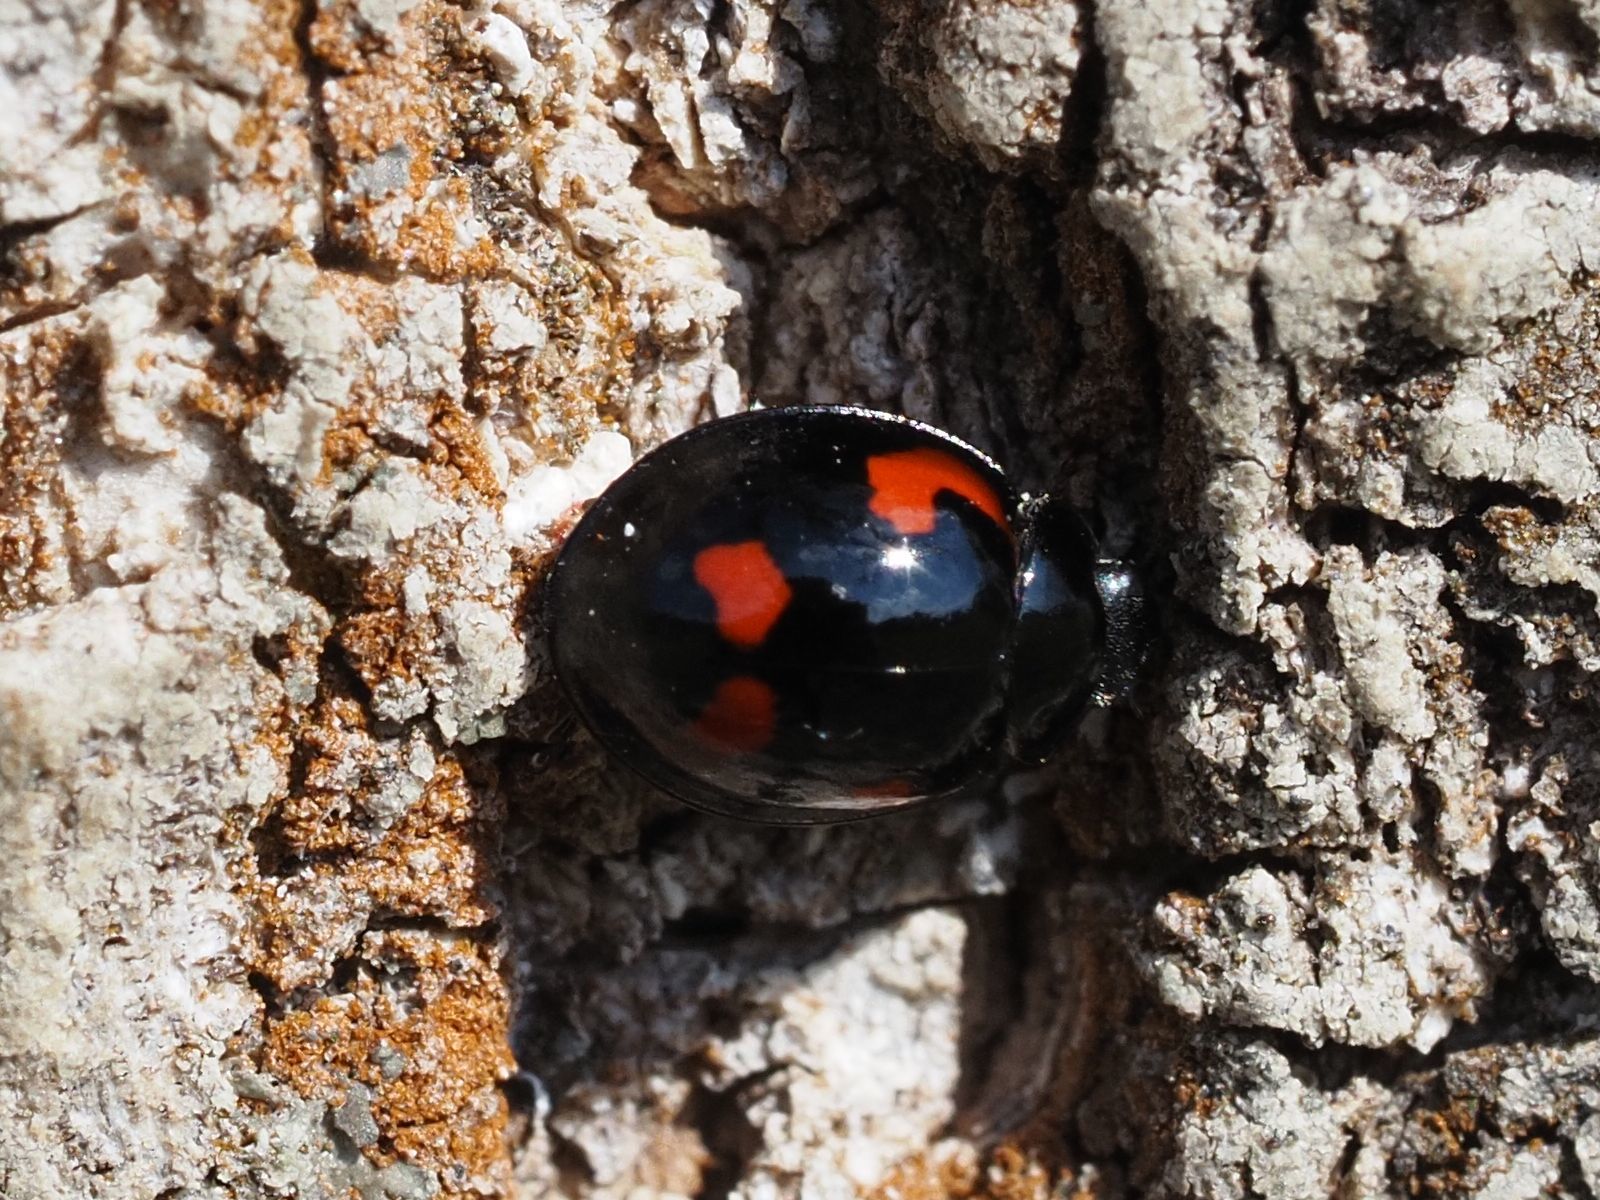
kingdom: Animalia
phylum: Arthropoda
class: Insecta
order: Coleoptera
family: Coccinellidae
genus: Brumus
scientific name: Brumus quadripustulatus
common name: Ladybird beetle
